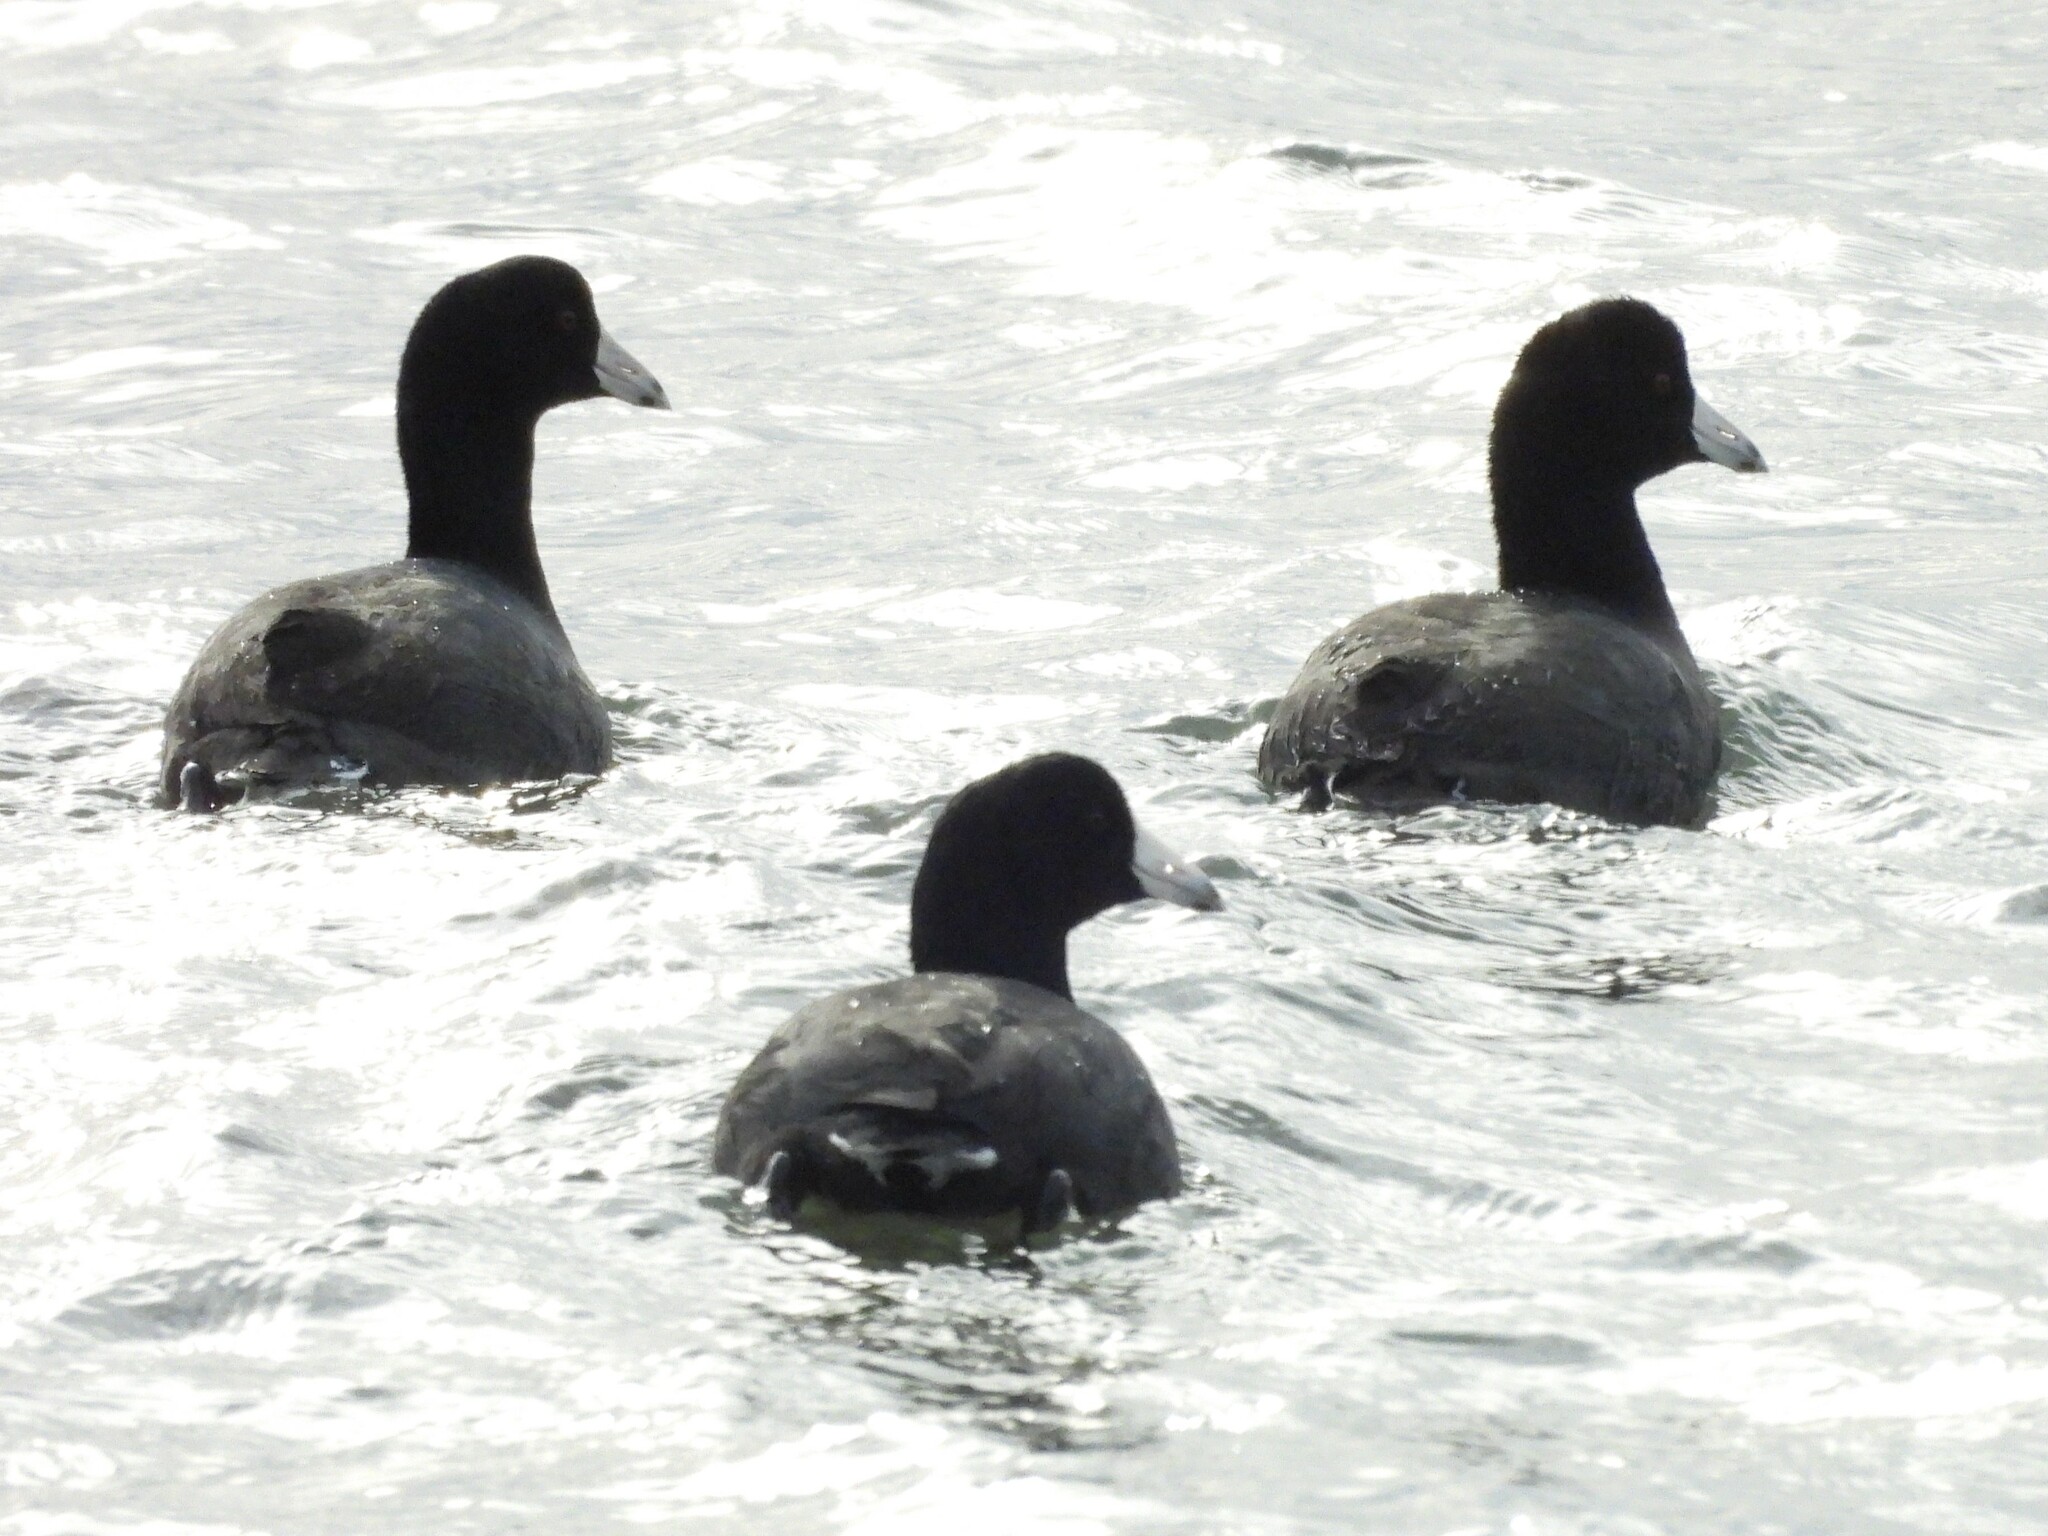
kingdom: Animalia
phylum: Chordata
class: Aves
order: Gruiformes
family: Rallidae
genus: Fulica
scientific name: Fulica americana
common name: American coot
